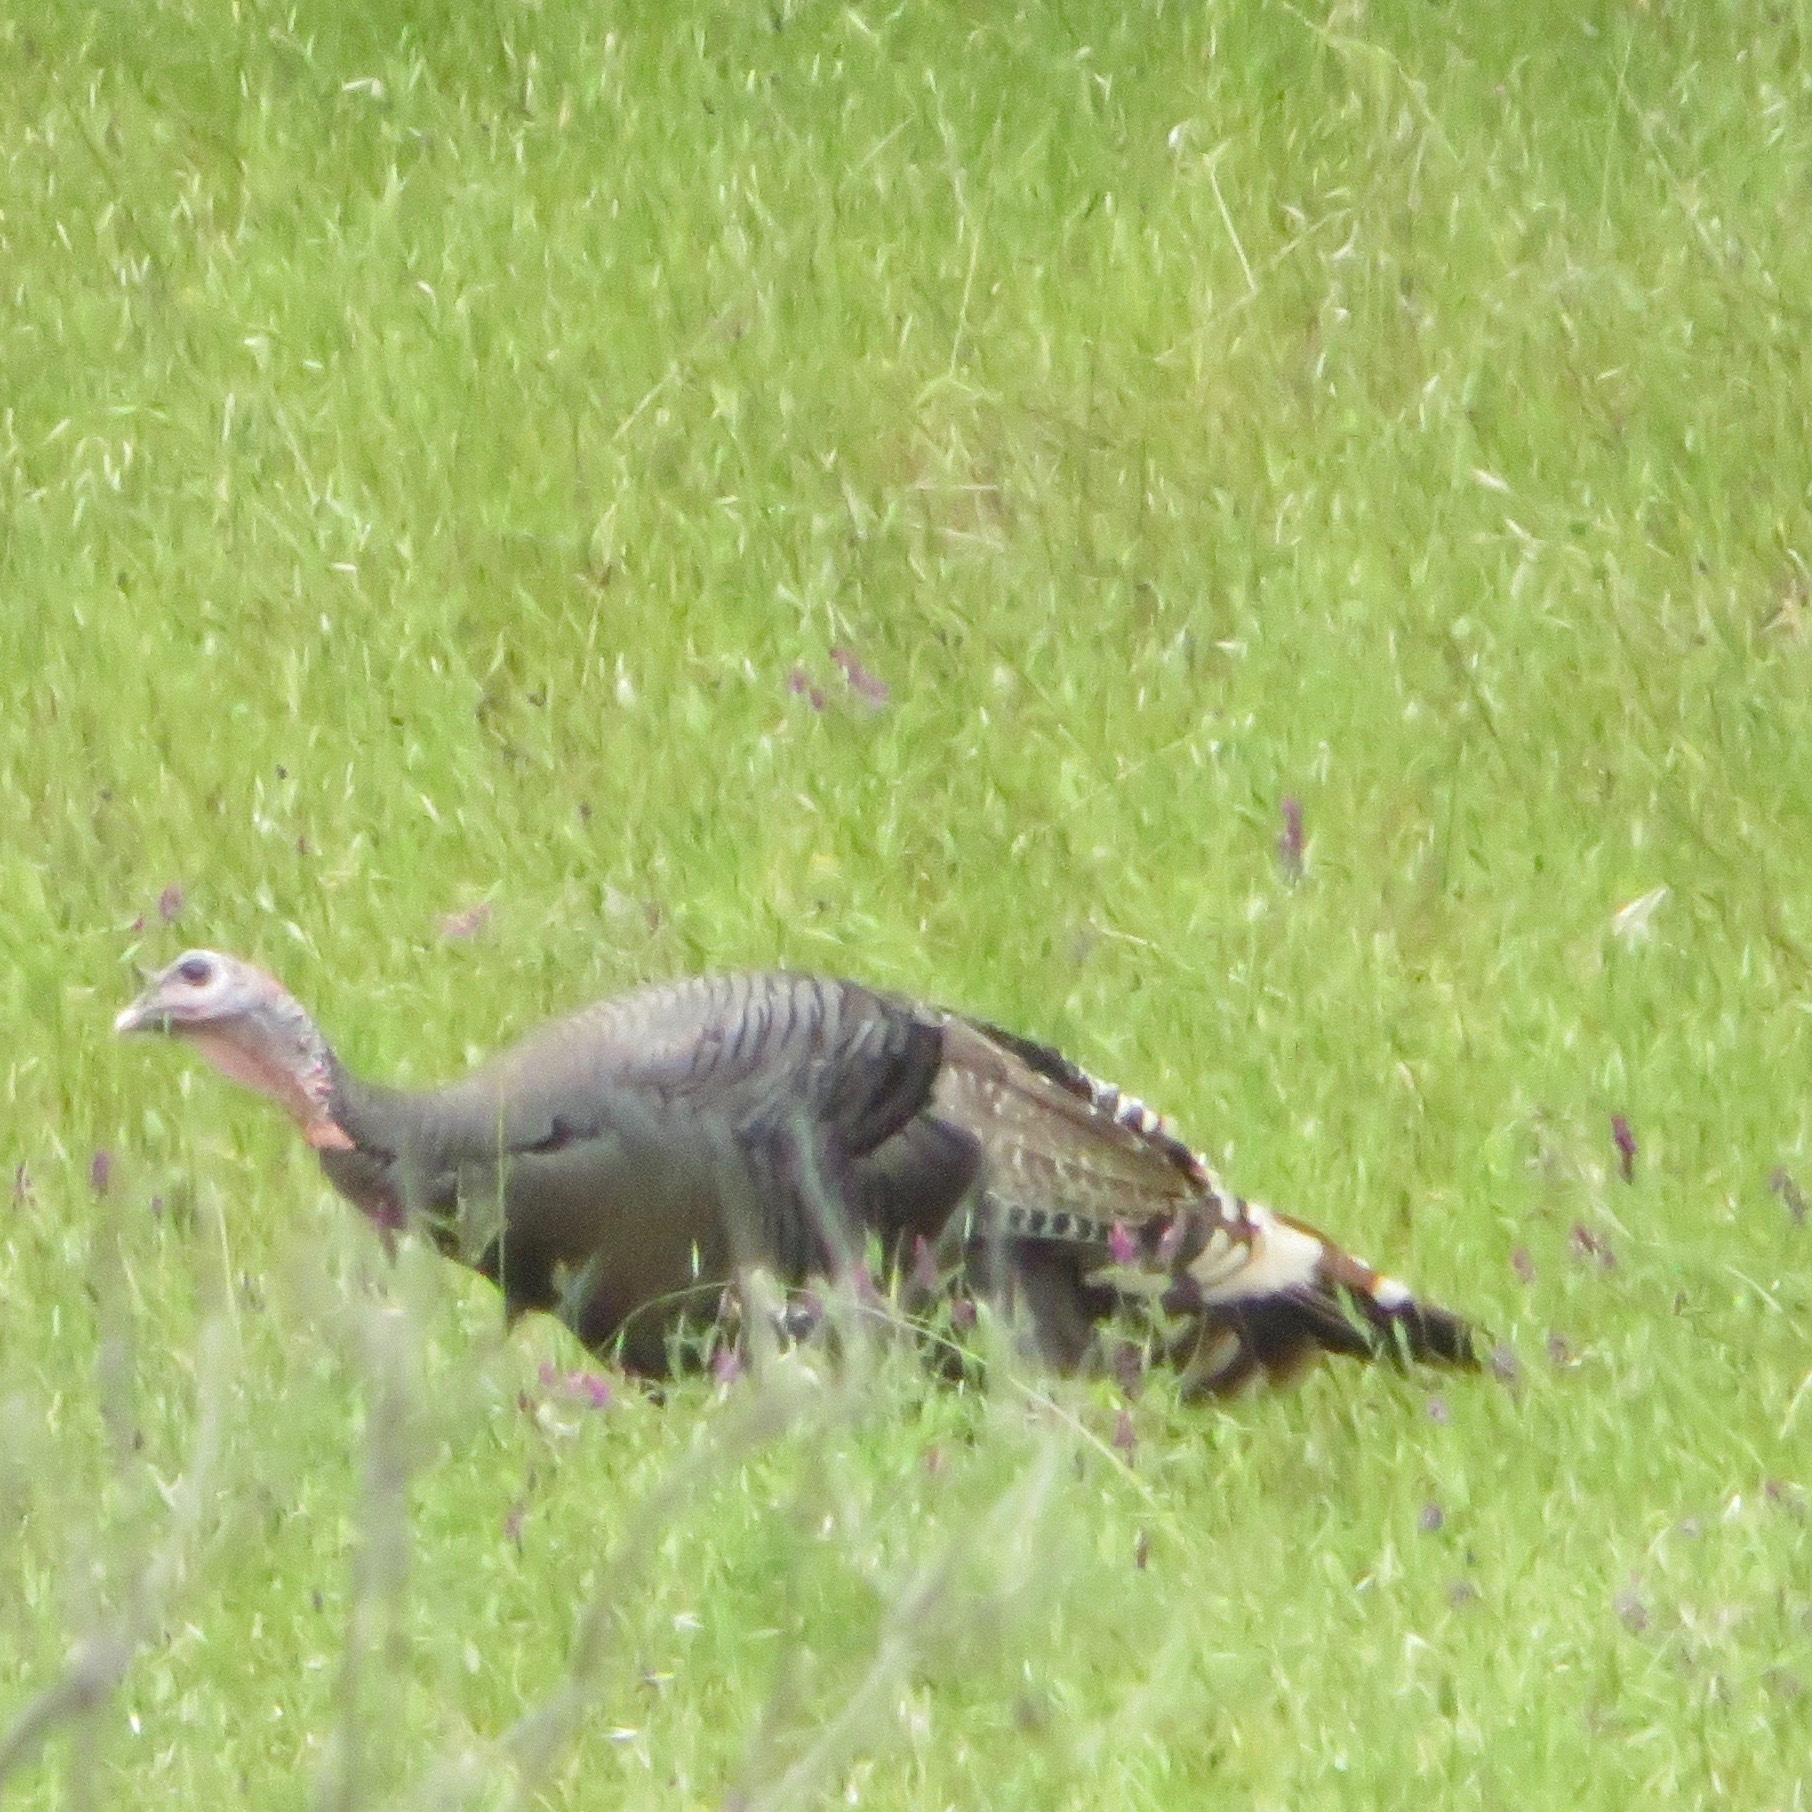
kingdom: Animalia
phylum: Chordata
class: Aves
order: Galliformes
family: Phasianidae
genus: Meleagris
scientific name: Meleagris gallopavo
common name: Wild turkey
